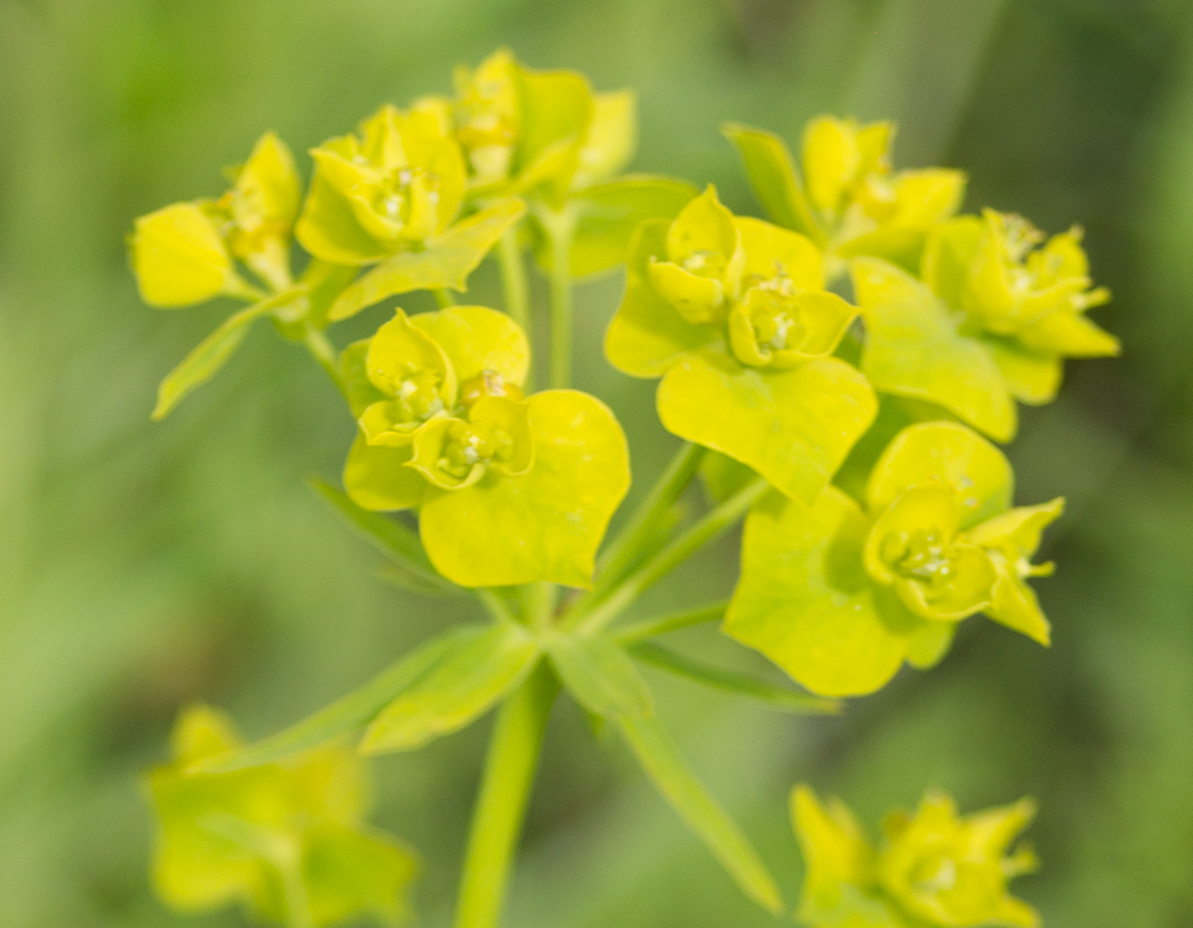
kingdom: Plantae
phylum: Tracheophyta
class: Magnoliopsida
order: Malpighiales
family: Euphorbiaceae
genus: Euphorbia
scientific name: Euphorbia virgata
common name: Leafy spurge
